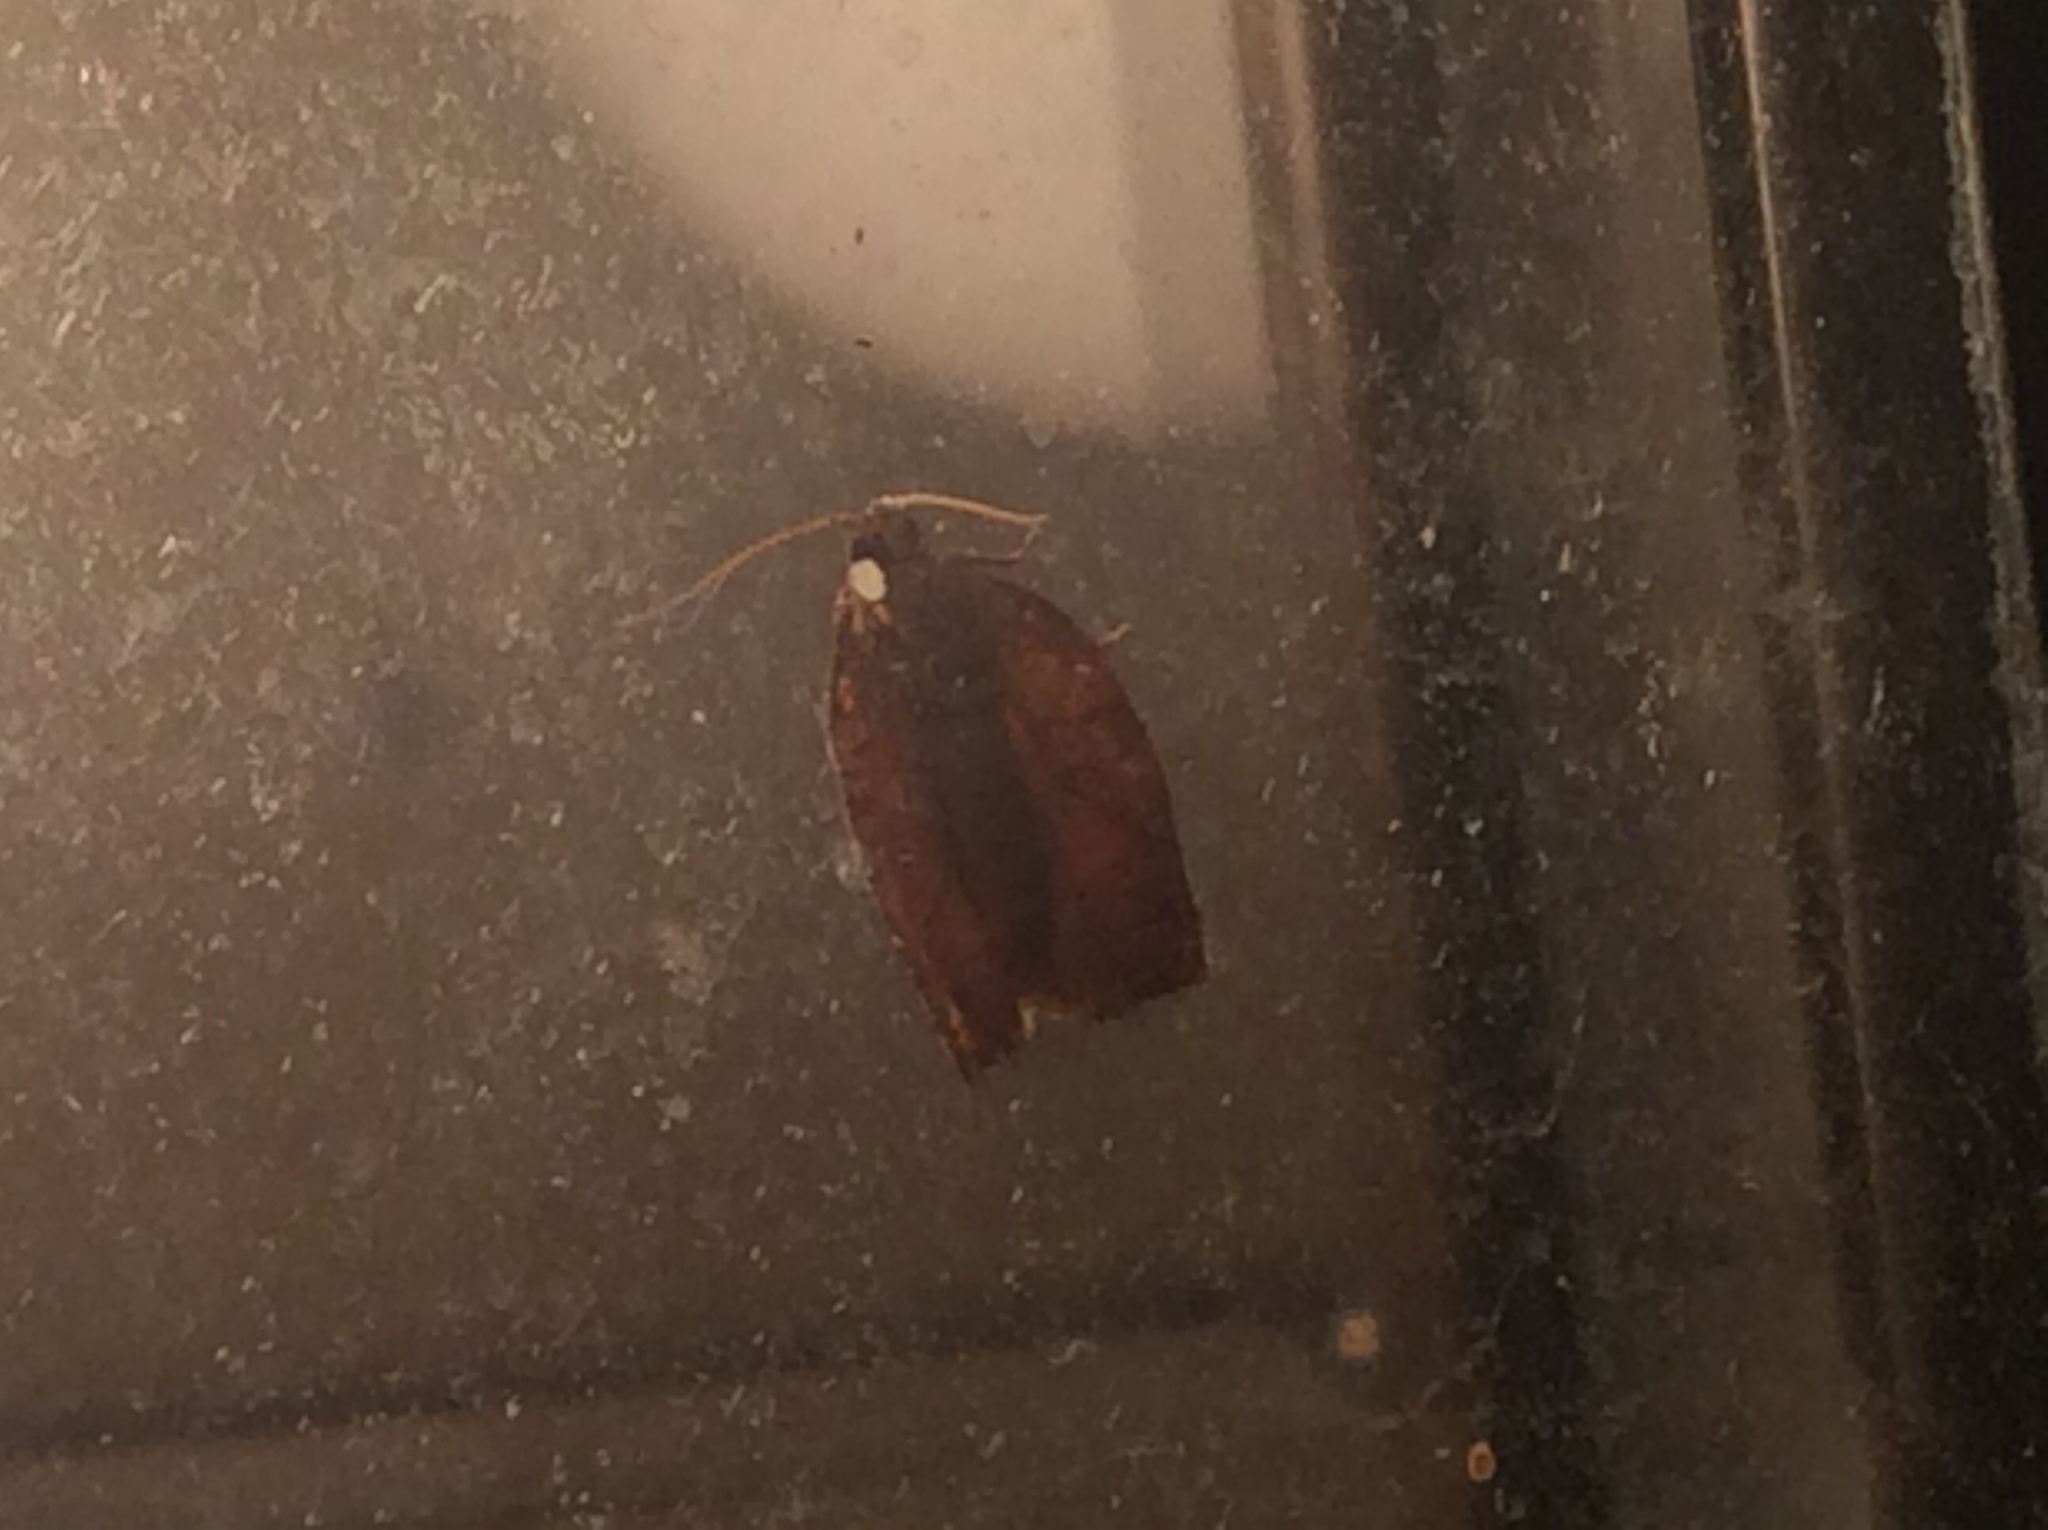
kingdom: Animalia
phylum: Arthropoda
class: Insecta
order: Lepidoptera
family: Tortricidae
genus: Choristoneura
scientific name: Choristoneura rosaceana
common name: Oblique-banded leafroller moth
